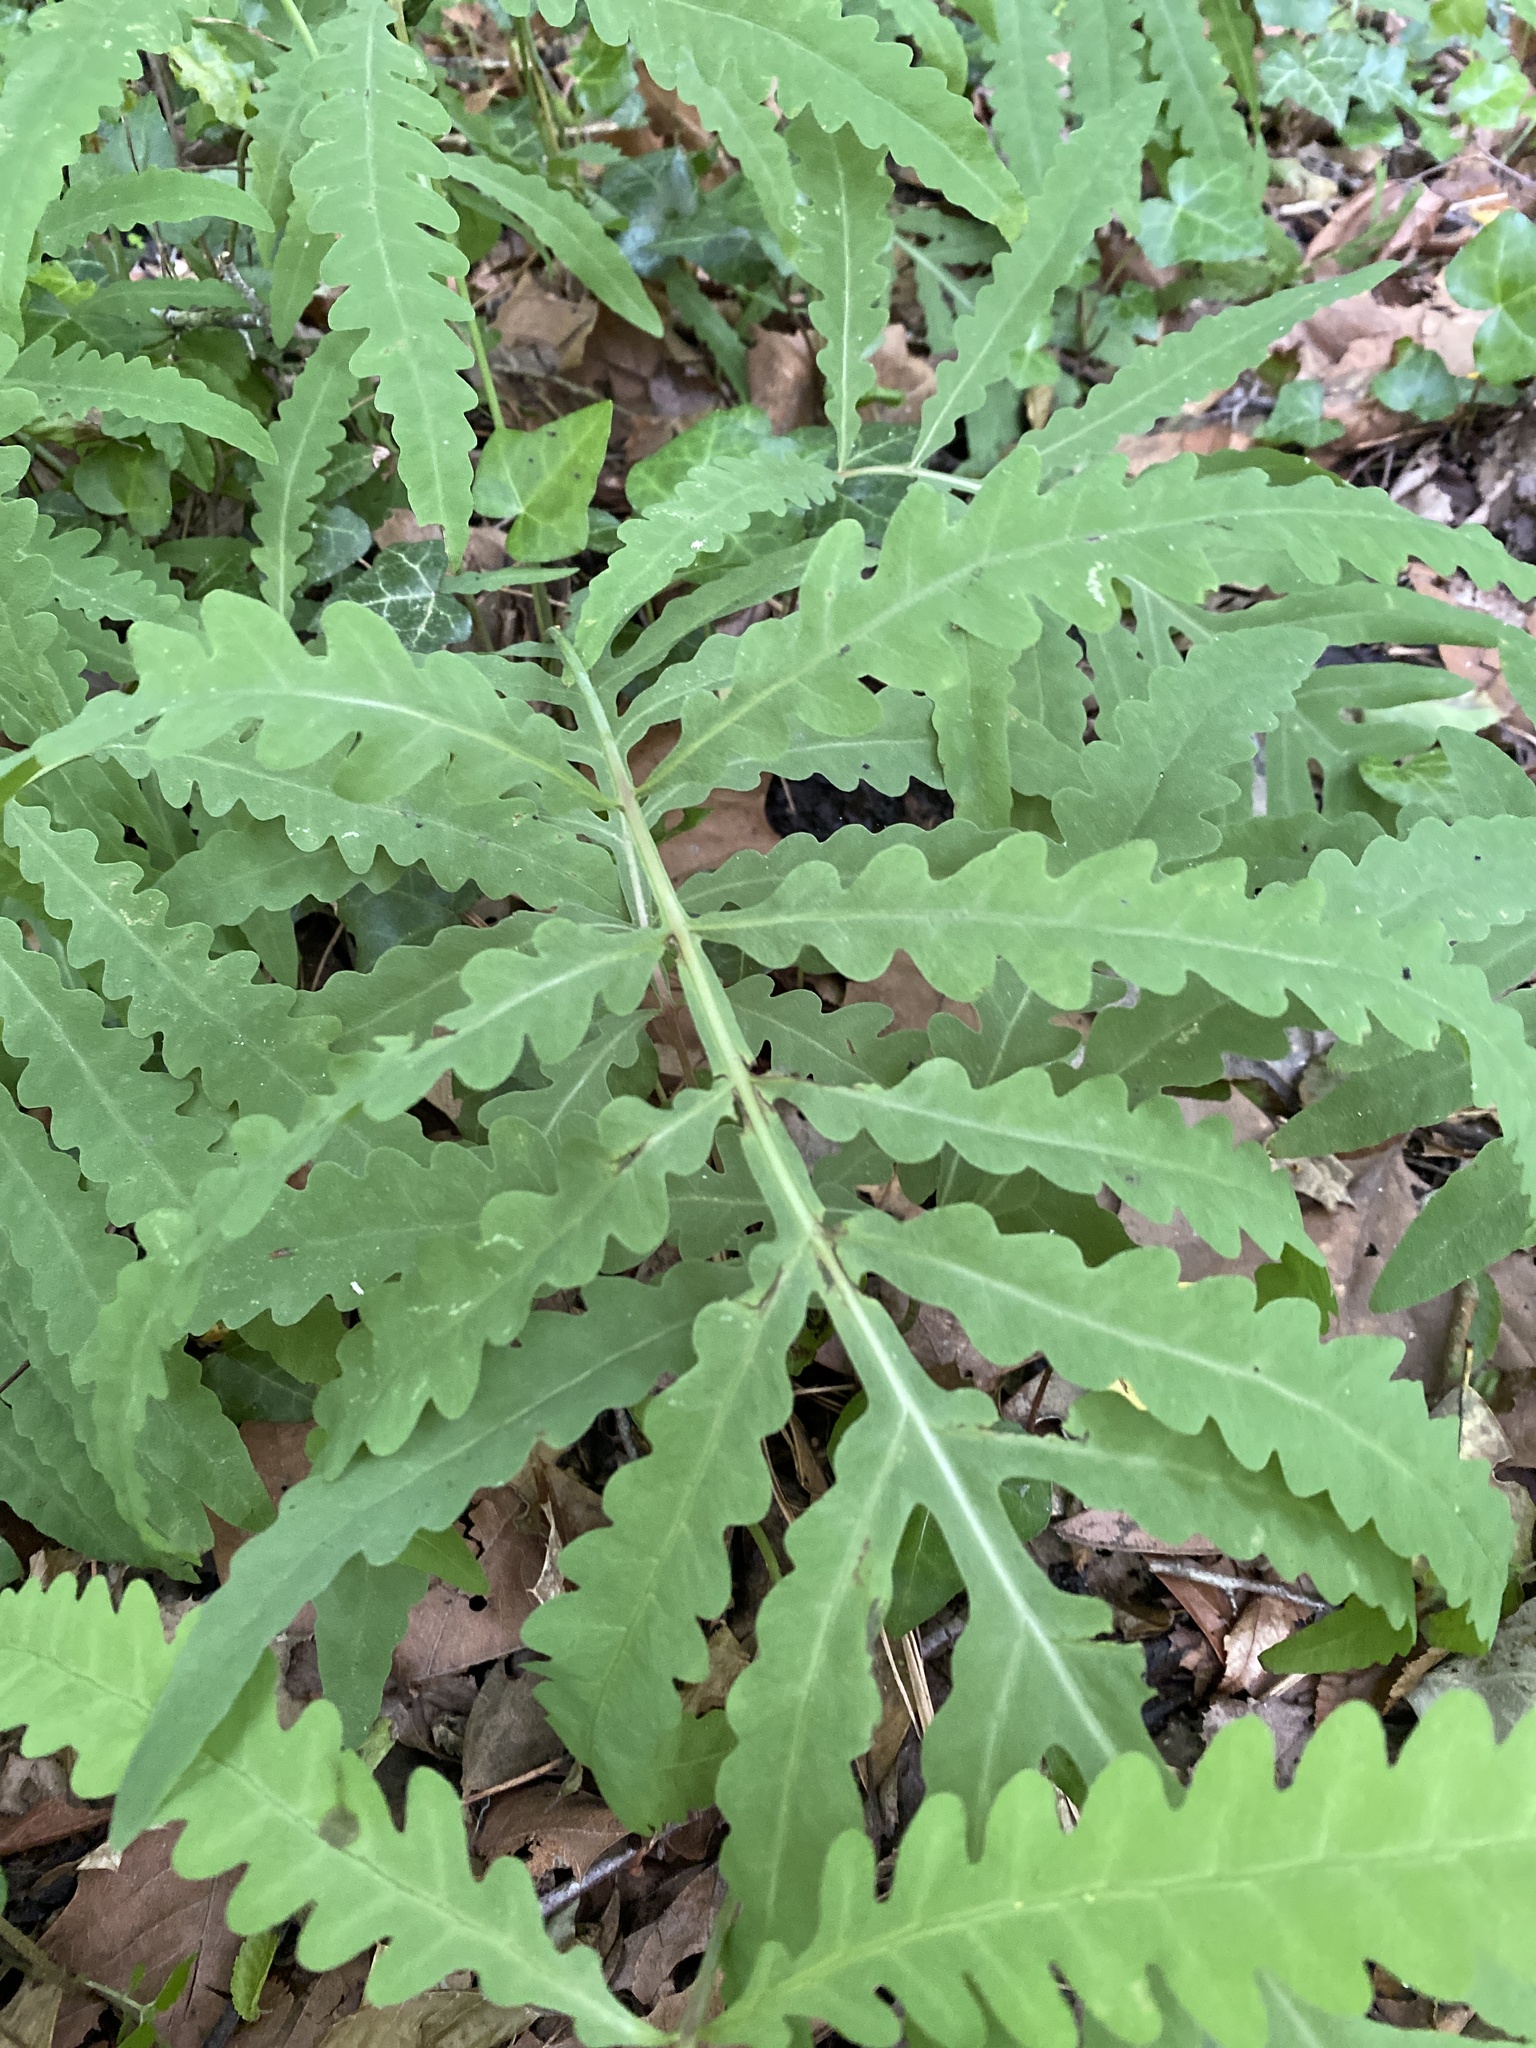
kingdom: Plantae
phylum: Tracheophyta
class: Polypodiopsida
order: Polypodiales
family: Onocleaceae
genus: Onoclea
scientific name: Onoclea sensibilis
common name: Sensitive fern
